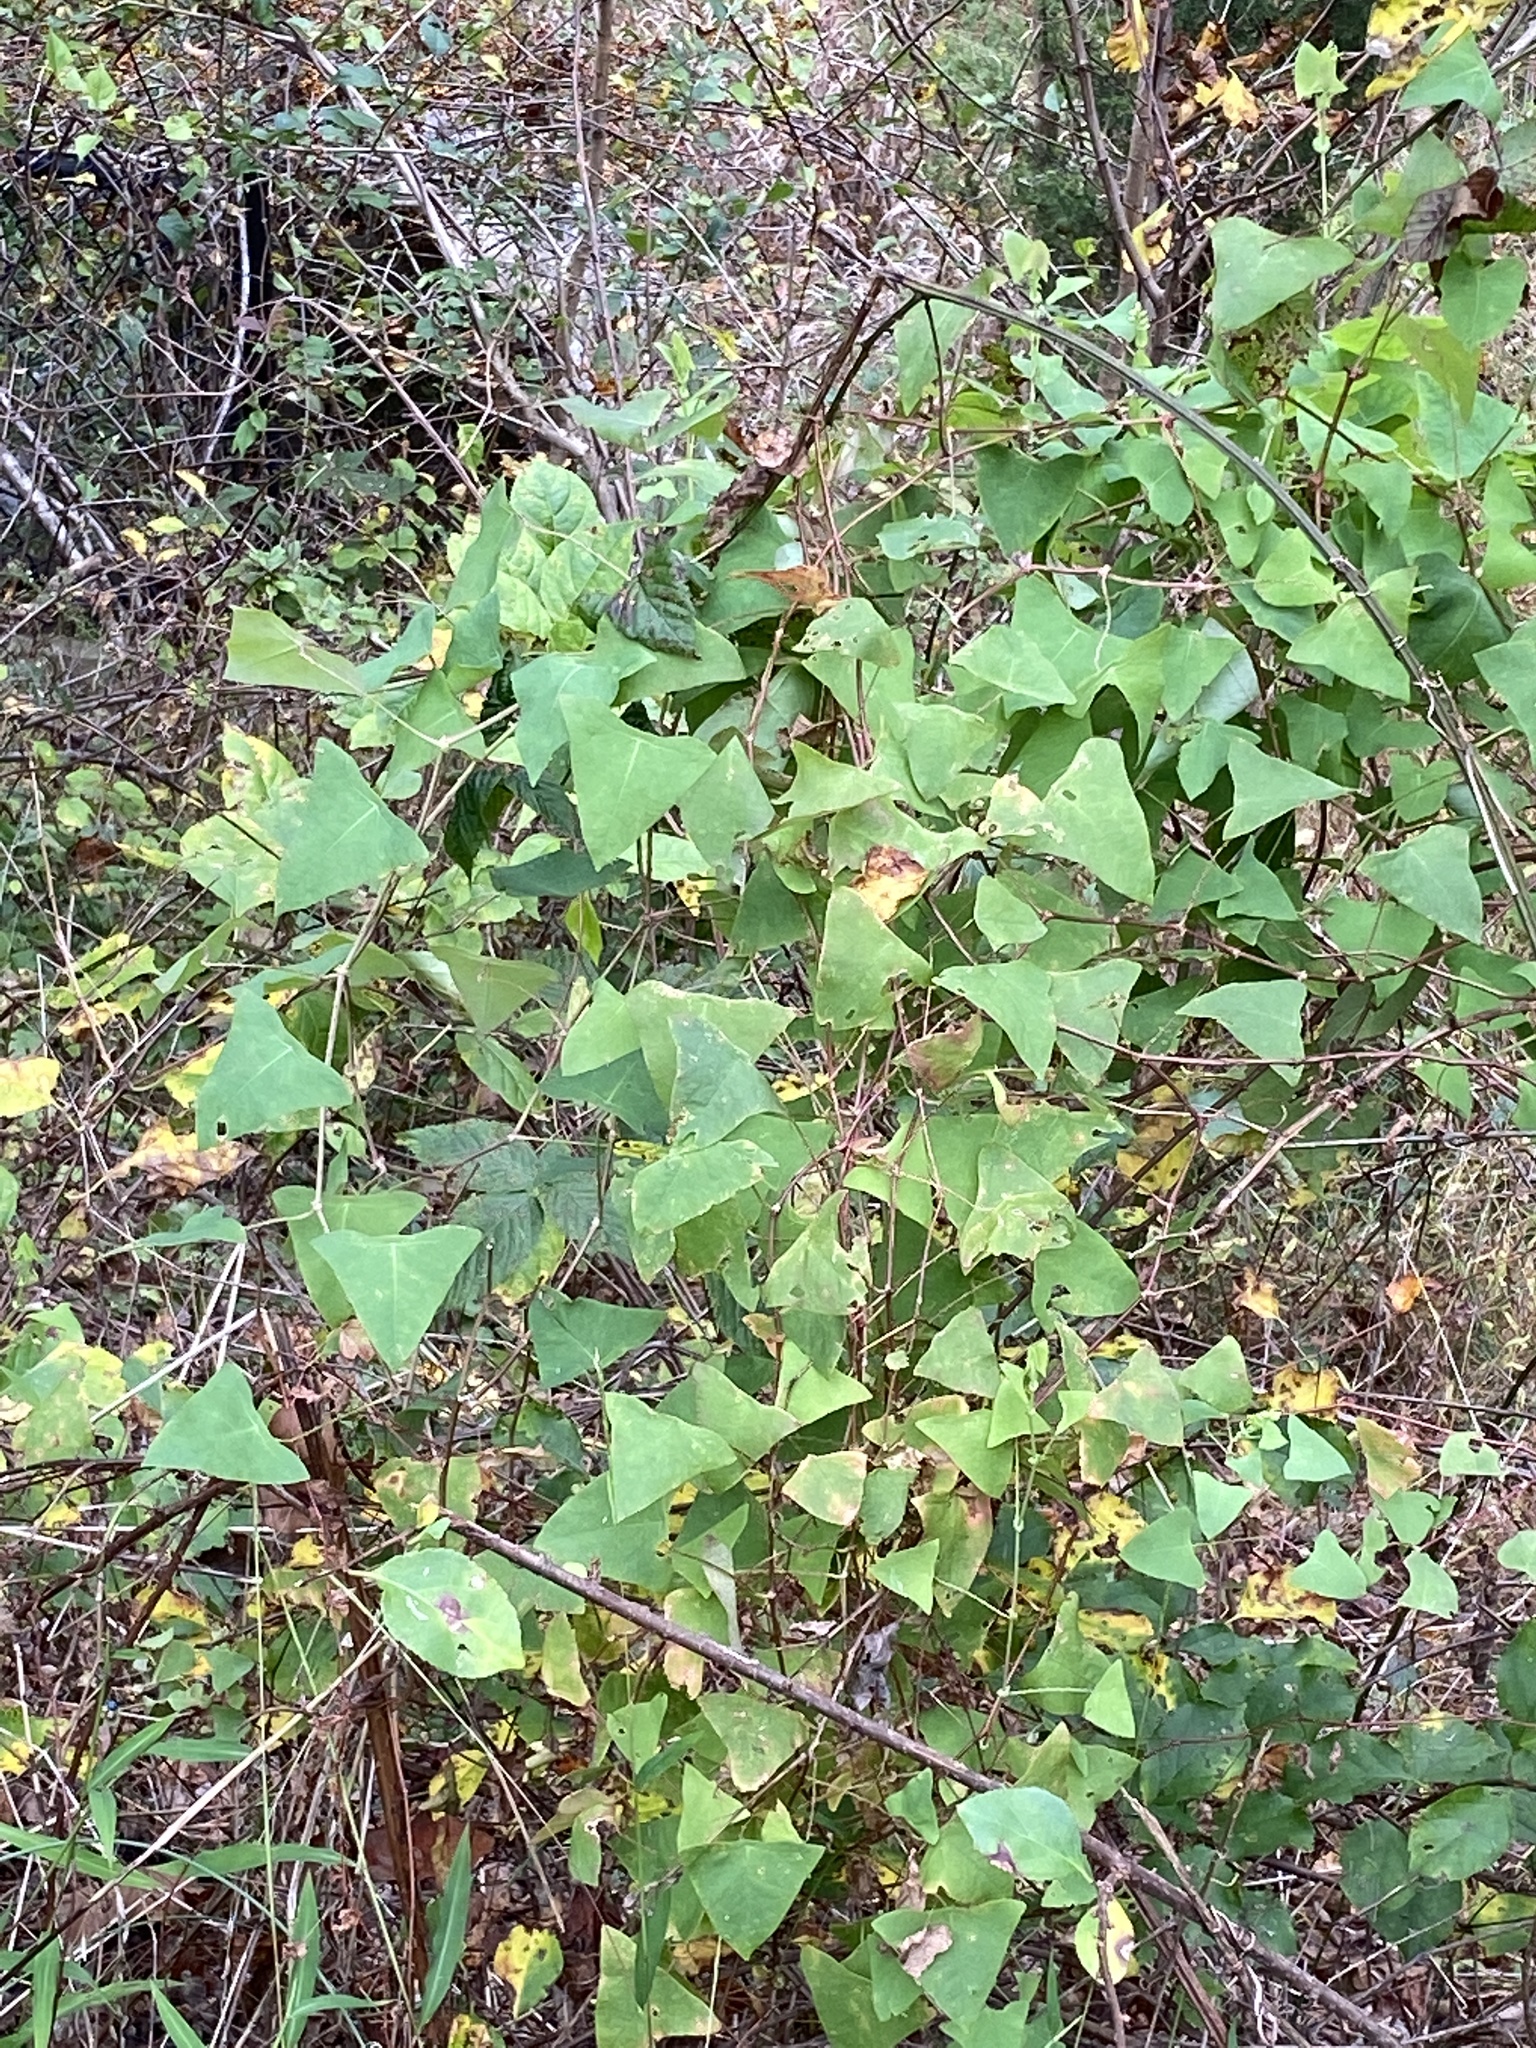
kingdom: Plantae
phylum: Tracheophyta
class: Magnoliopsida
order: Caryophyllales
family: Polygonaceae
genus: Persicaria
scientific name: Persicaria perfoliata
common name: Asiatic tearthumb
